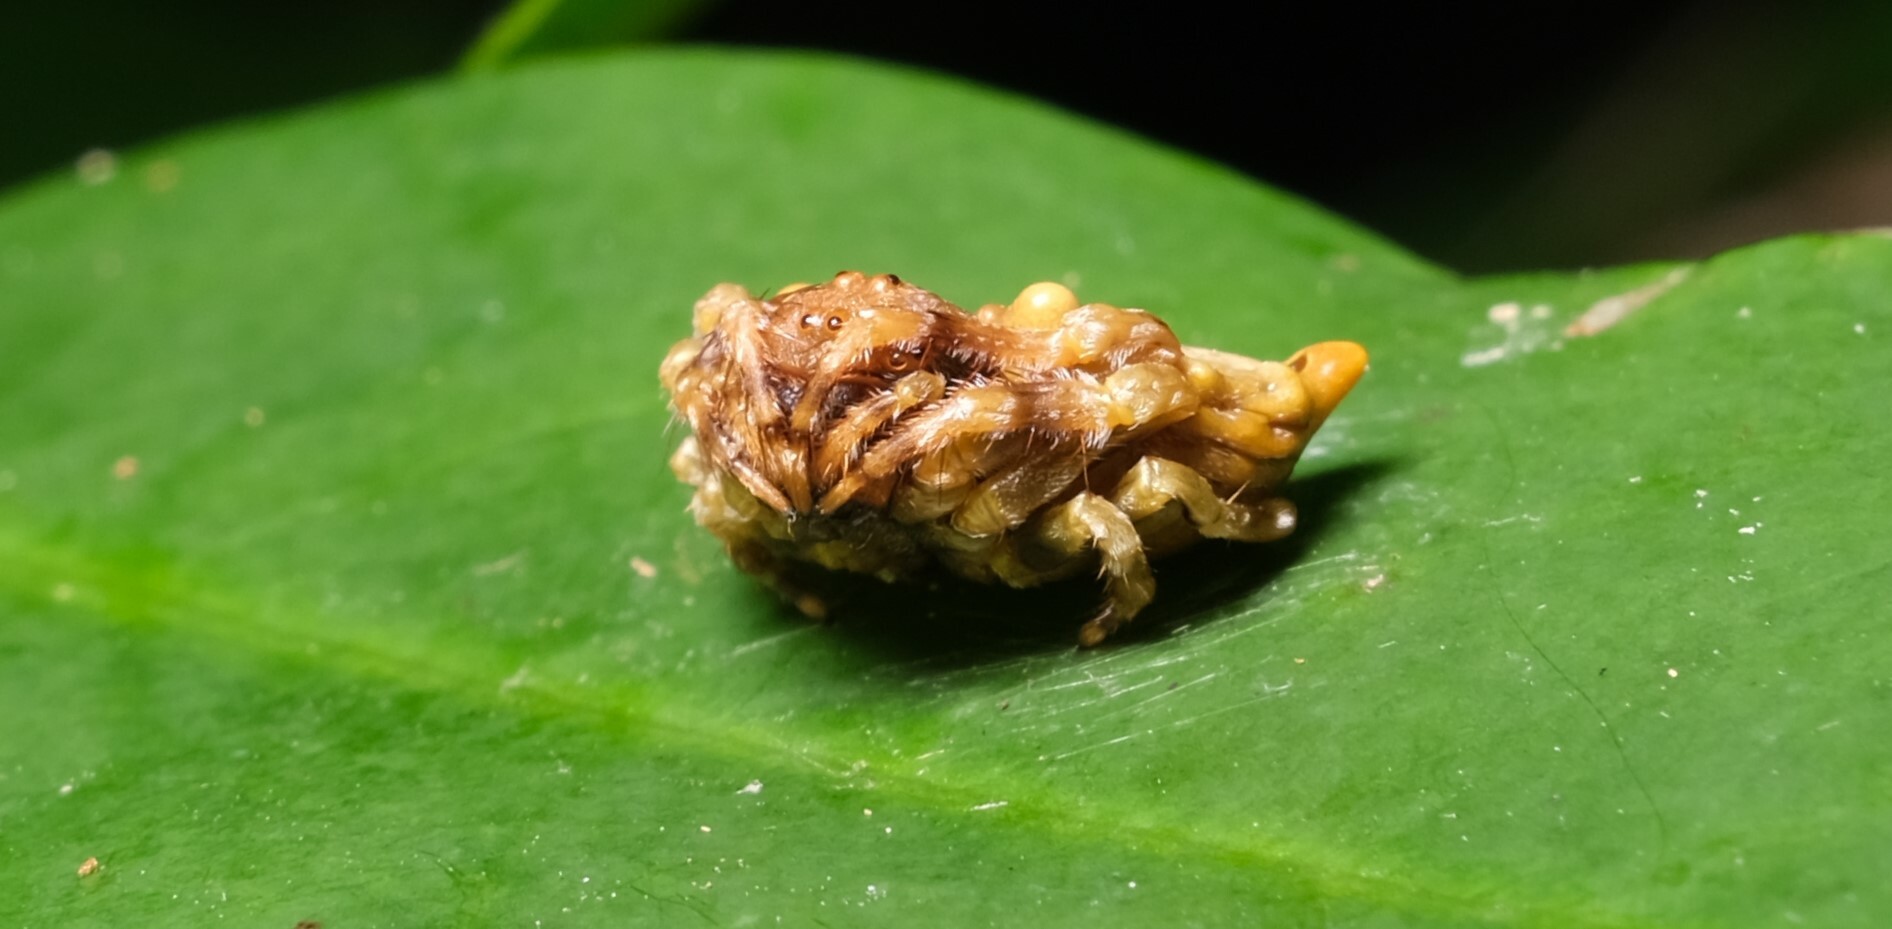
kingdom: Animalia
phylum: Arthropoda
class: Arachnida
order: Araneae
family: Arkyidae
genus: Arkys
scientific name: Arkys curtulus
